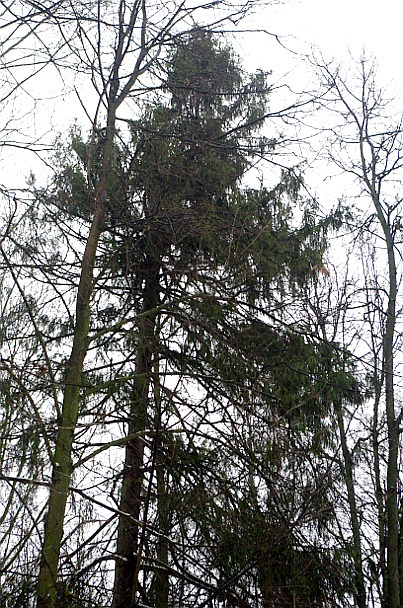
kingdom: Plantae
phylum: Tracheophyta
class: Pinopsida
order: Pinales
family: Pinaceae
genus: Picea
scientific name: Picea abies
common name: Norway spruce
